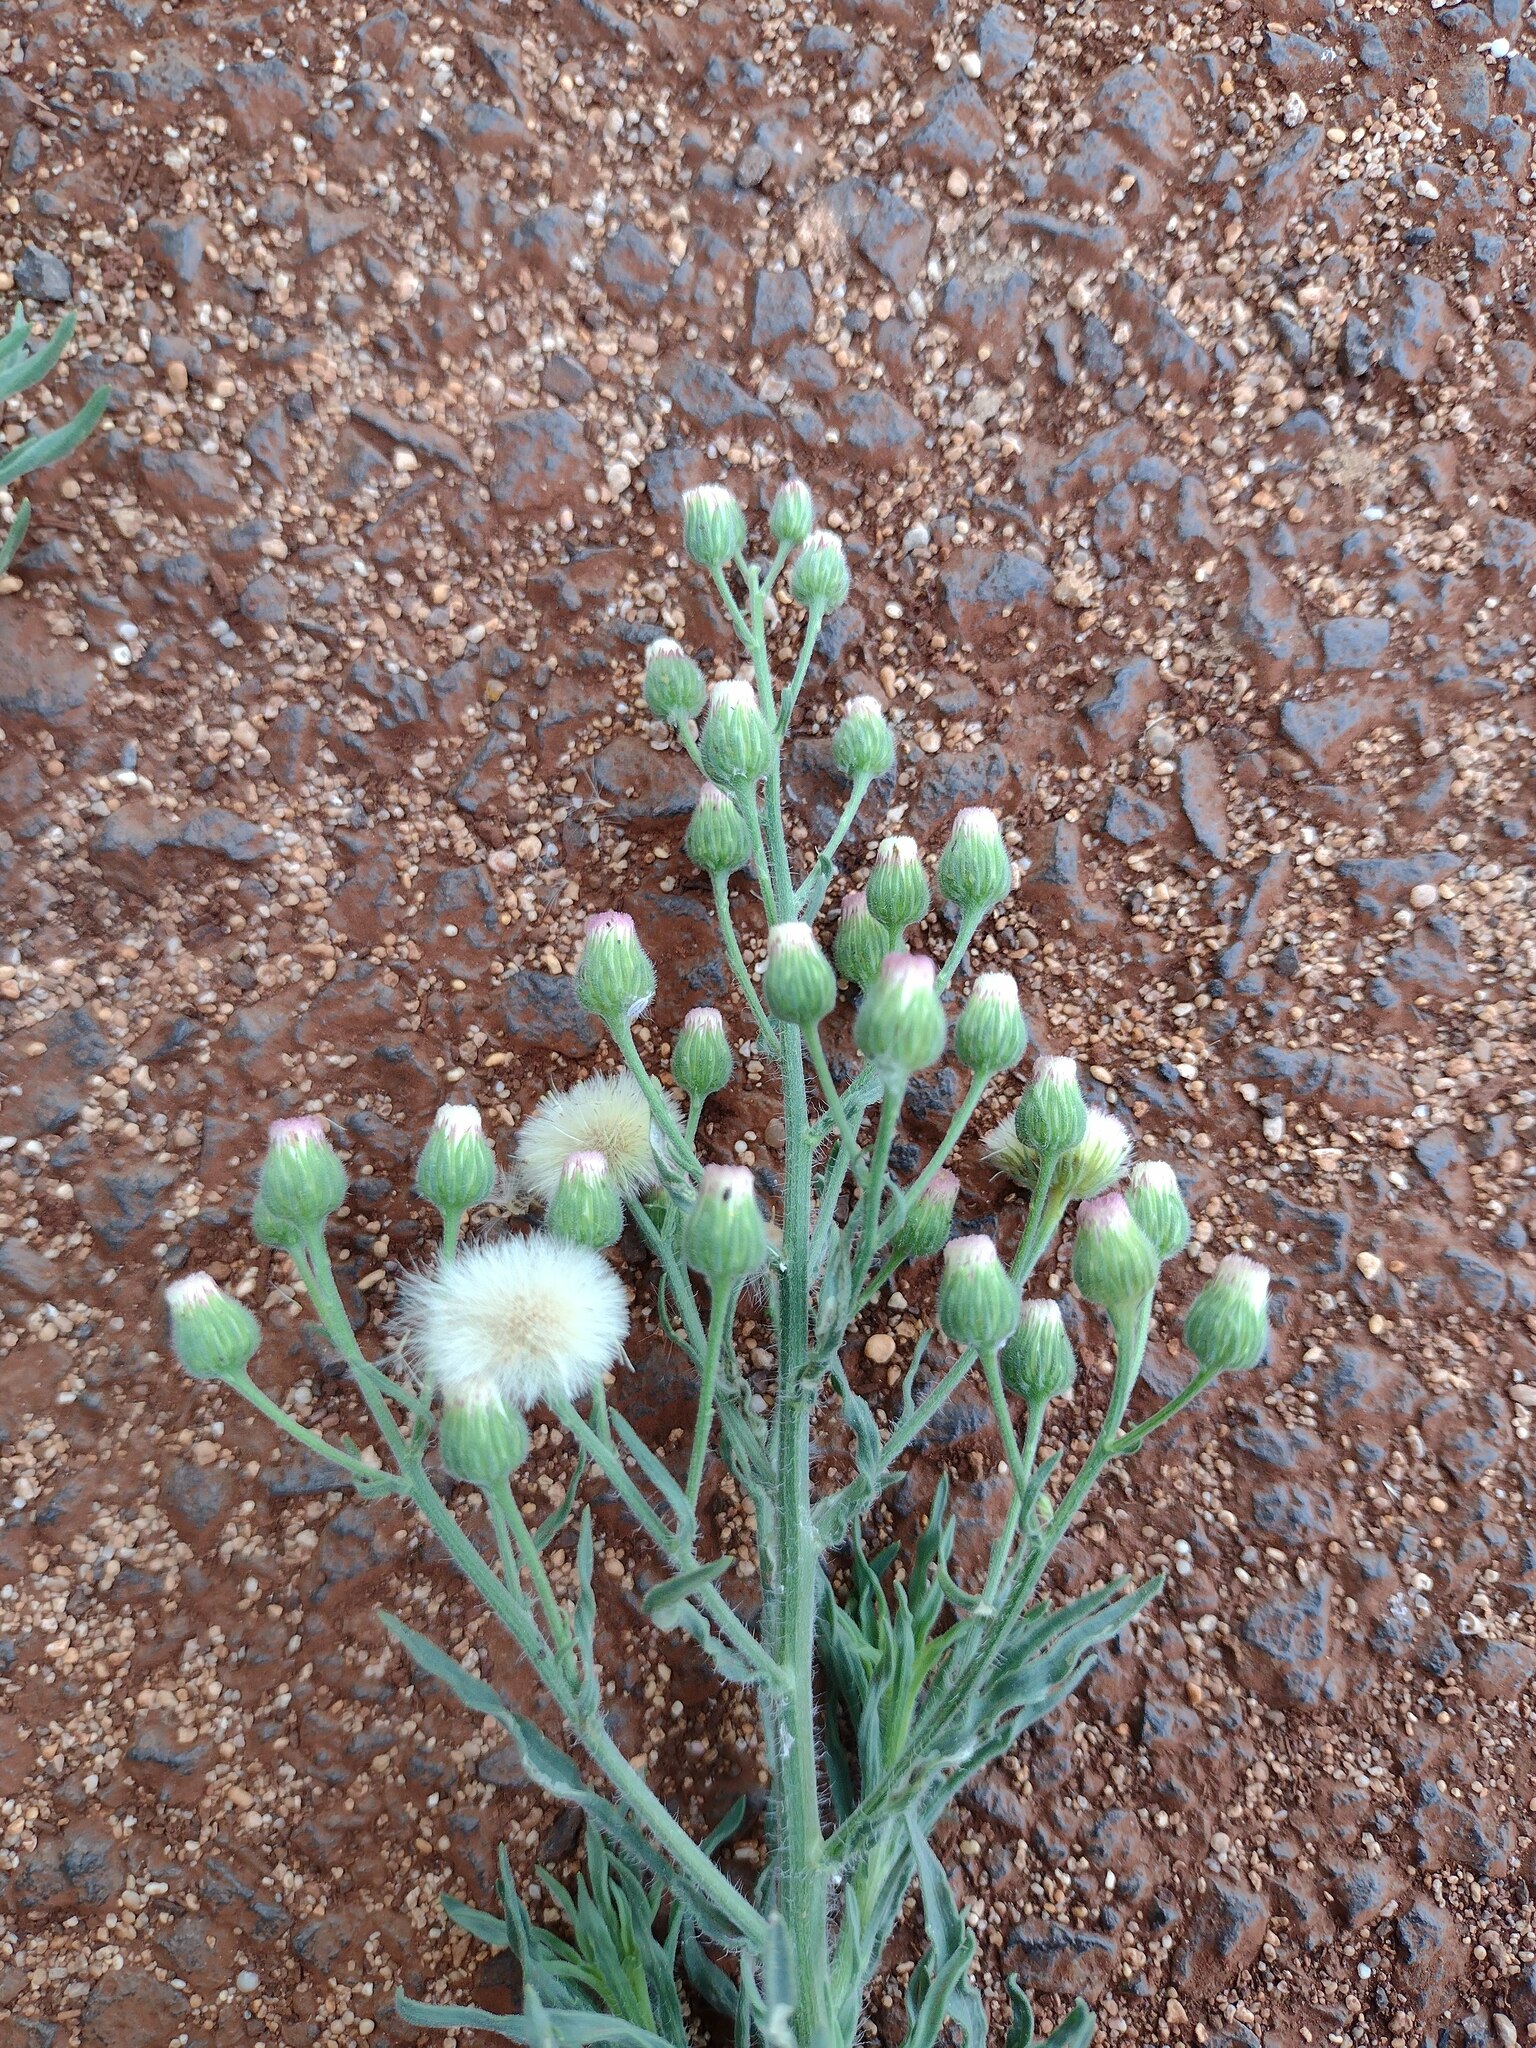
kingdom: Plantae
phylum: Tracheophyta
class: Magnoliopsida
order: Asterales
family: Asteraceae
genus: Erigeron
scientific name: Erigeron bonariensis
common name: Argentine fleabane
